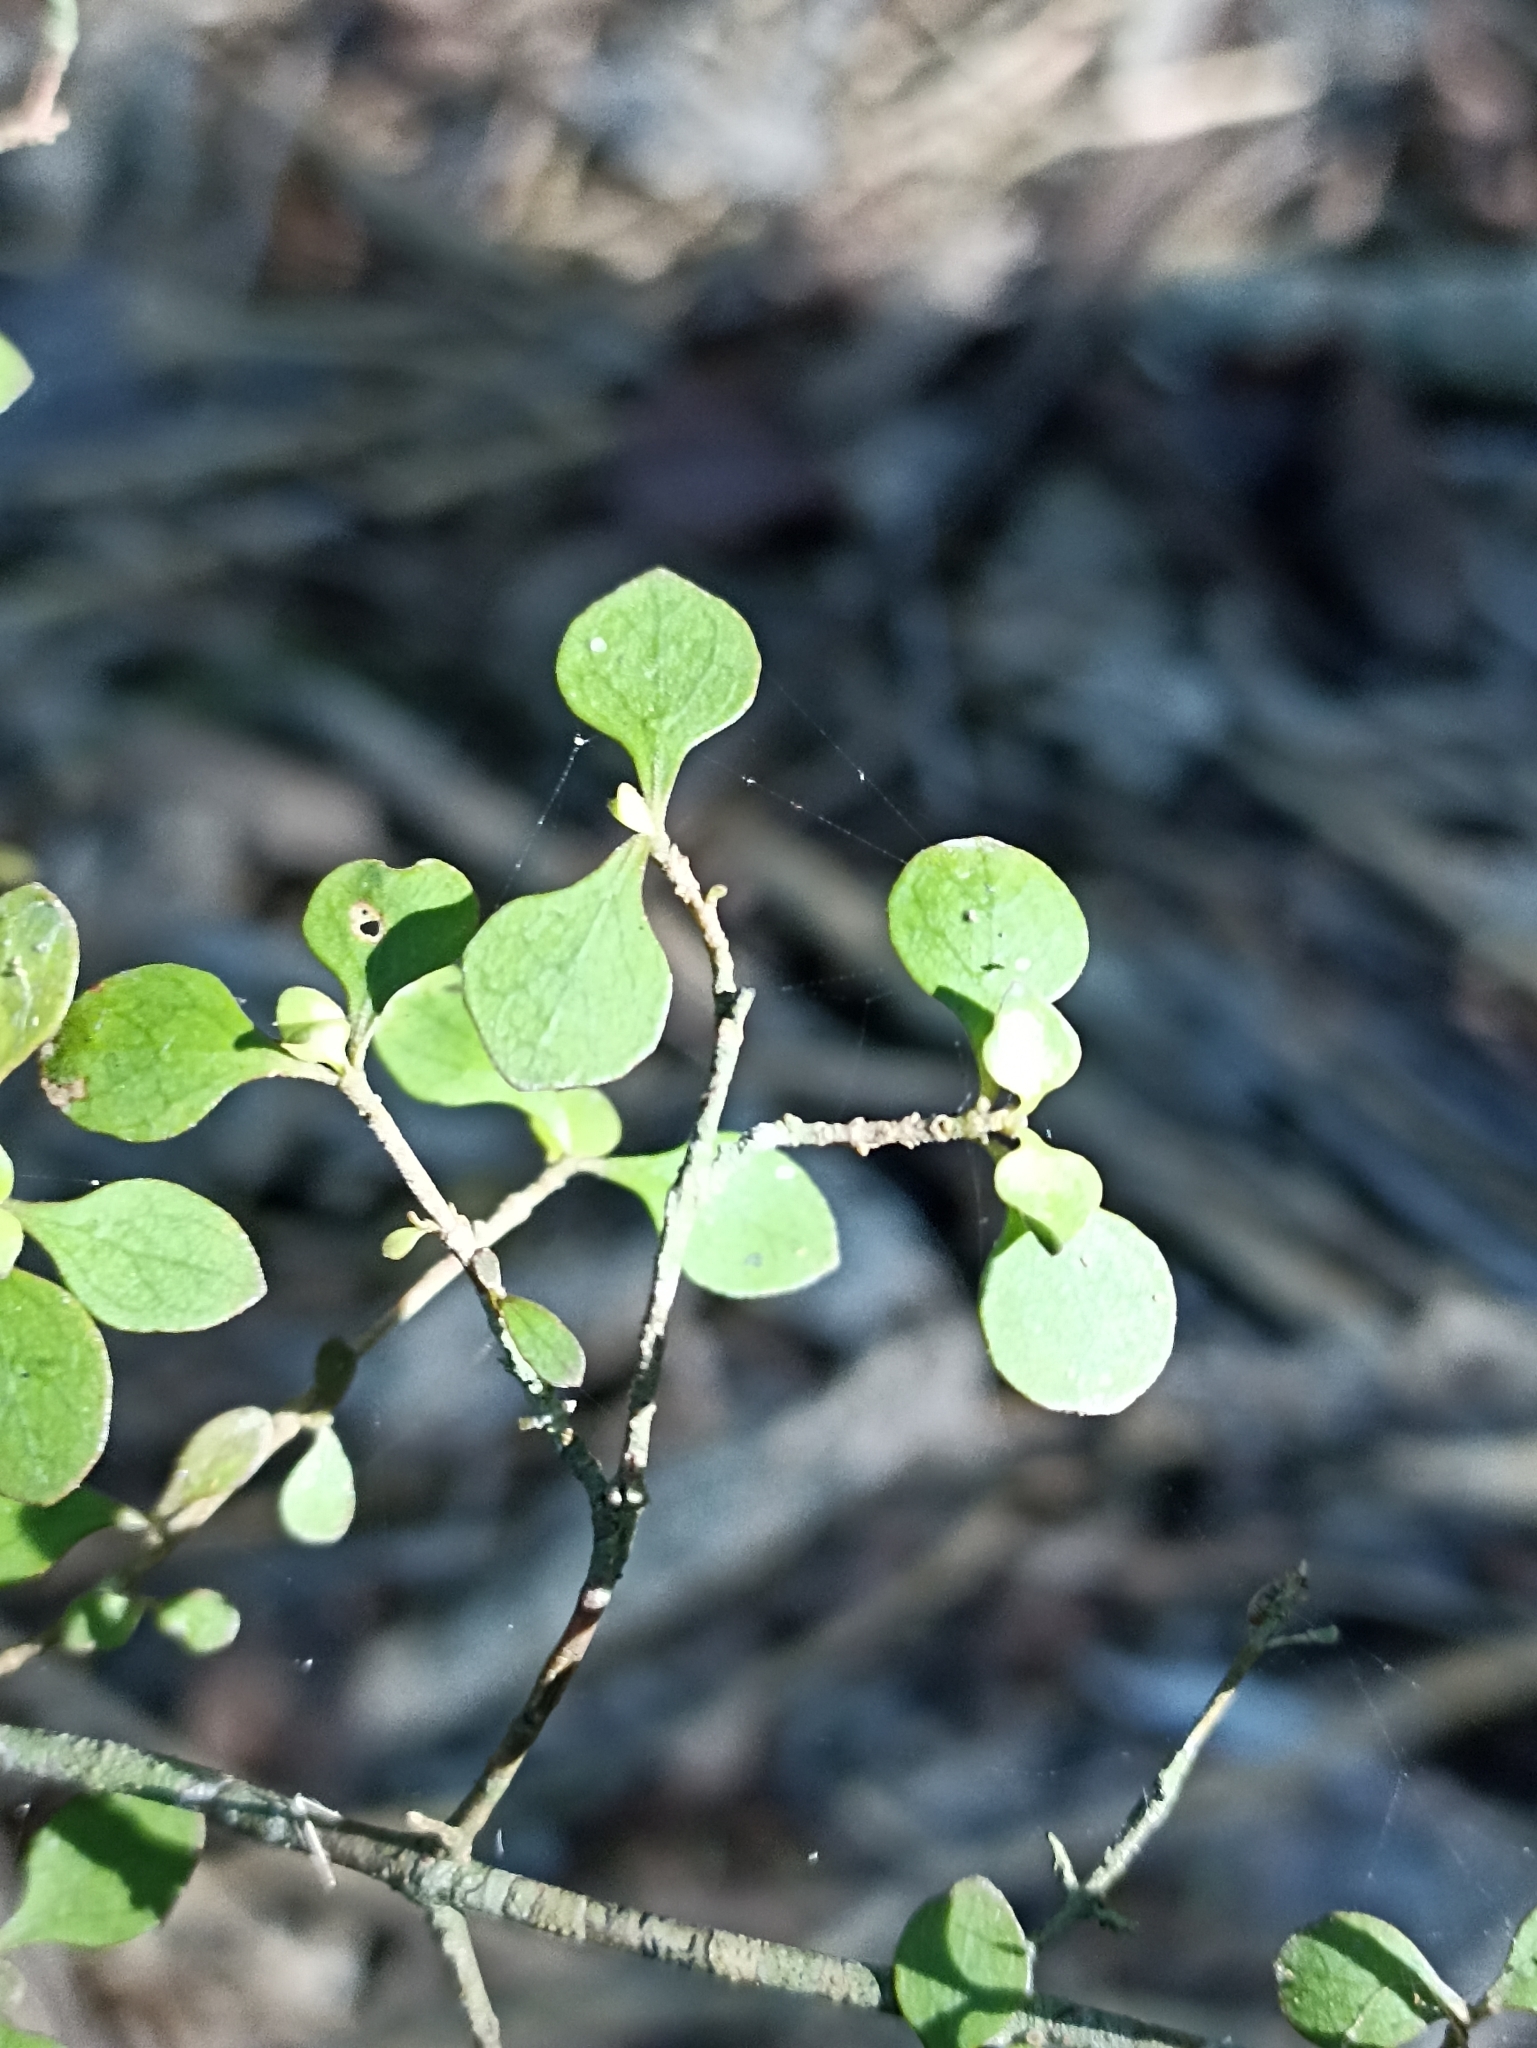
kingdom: Plantae
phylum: Tracheophyta
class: Magnoliopsida
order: Gentianales
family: Rubiaceae
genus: Coprosma
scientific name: Coprosma rhamnoides
